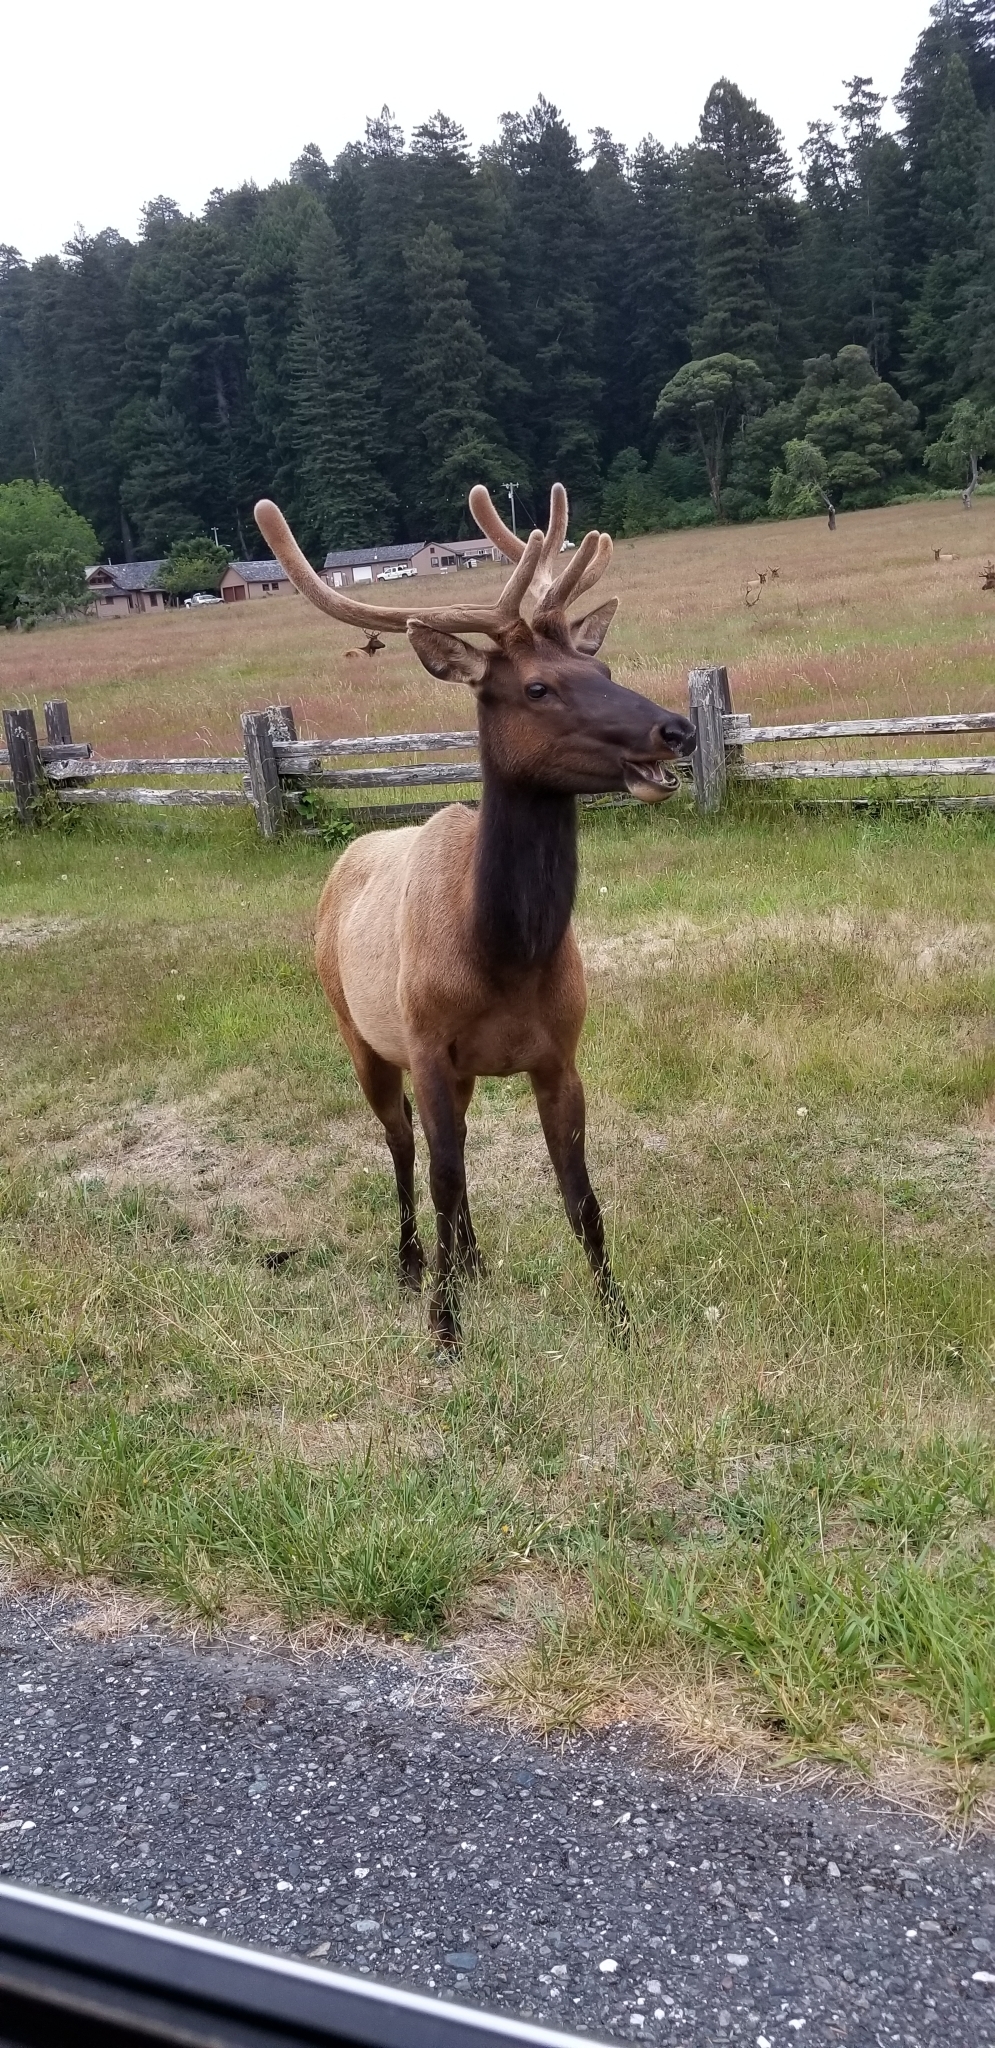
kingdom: Animalia
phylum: Chordata
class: Mammalia
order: Artiodactyla
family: Cervidae
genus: Cervus
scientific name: Cervus elaphus
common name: Red deer
